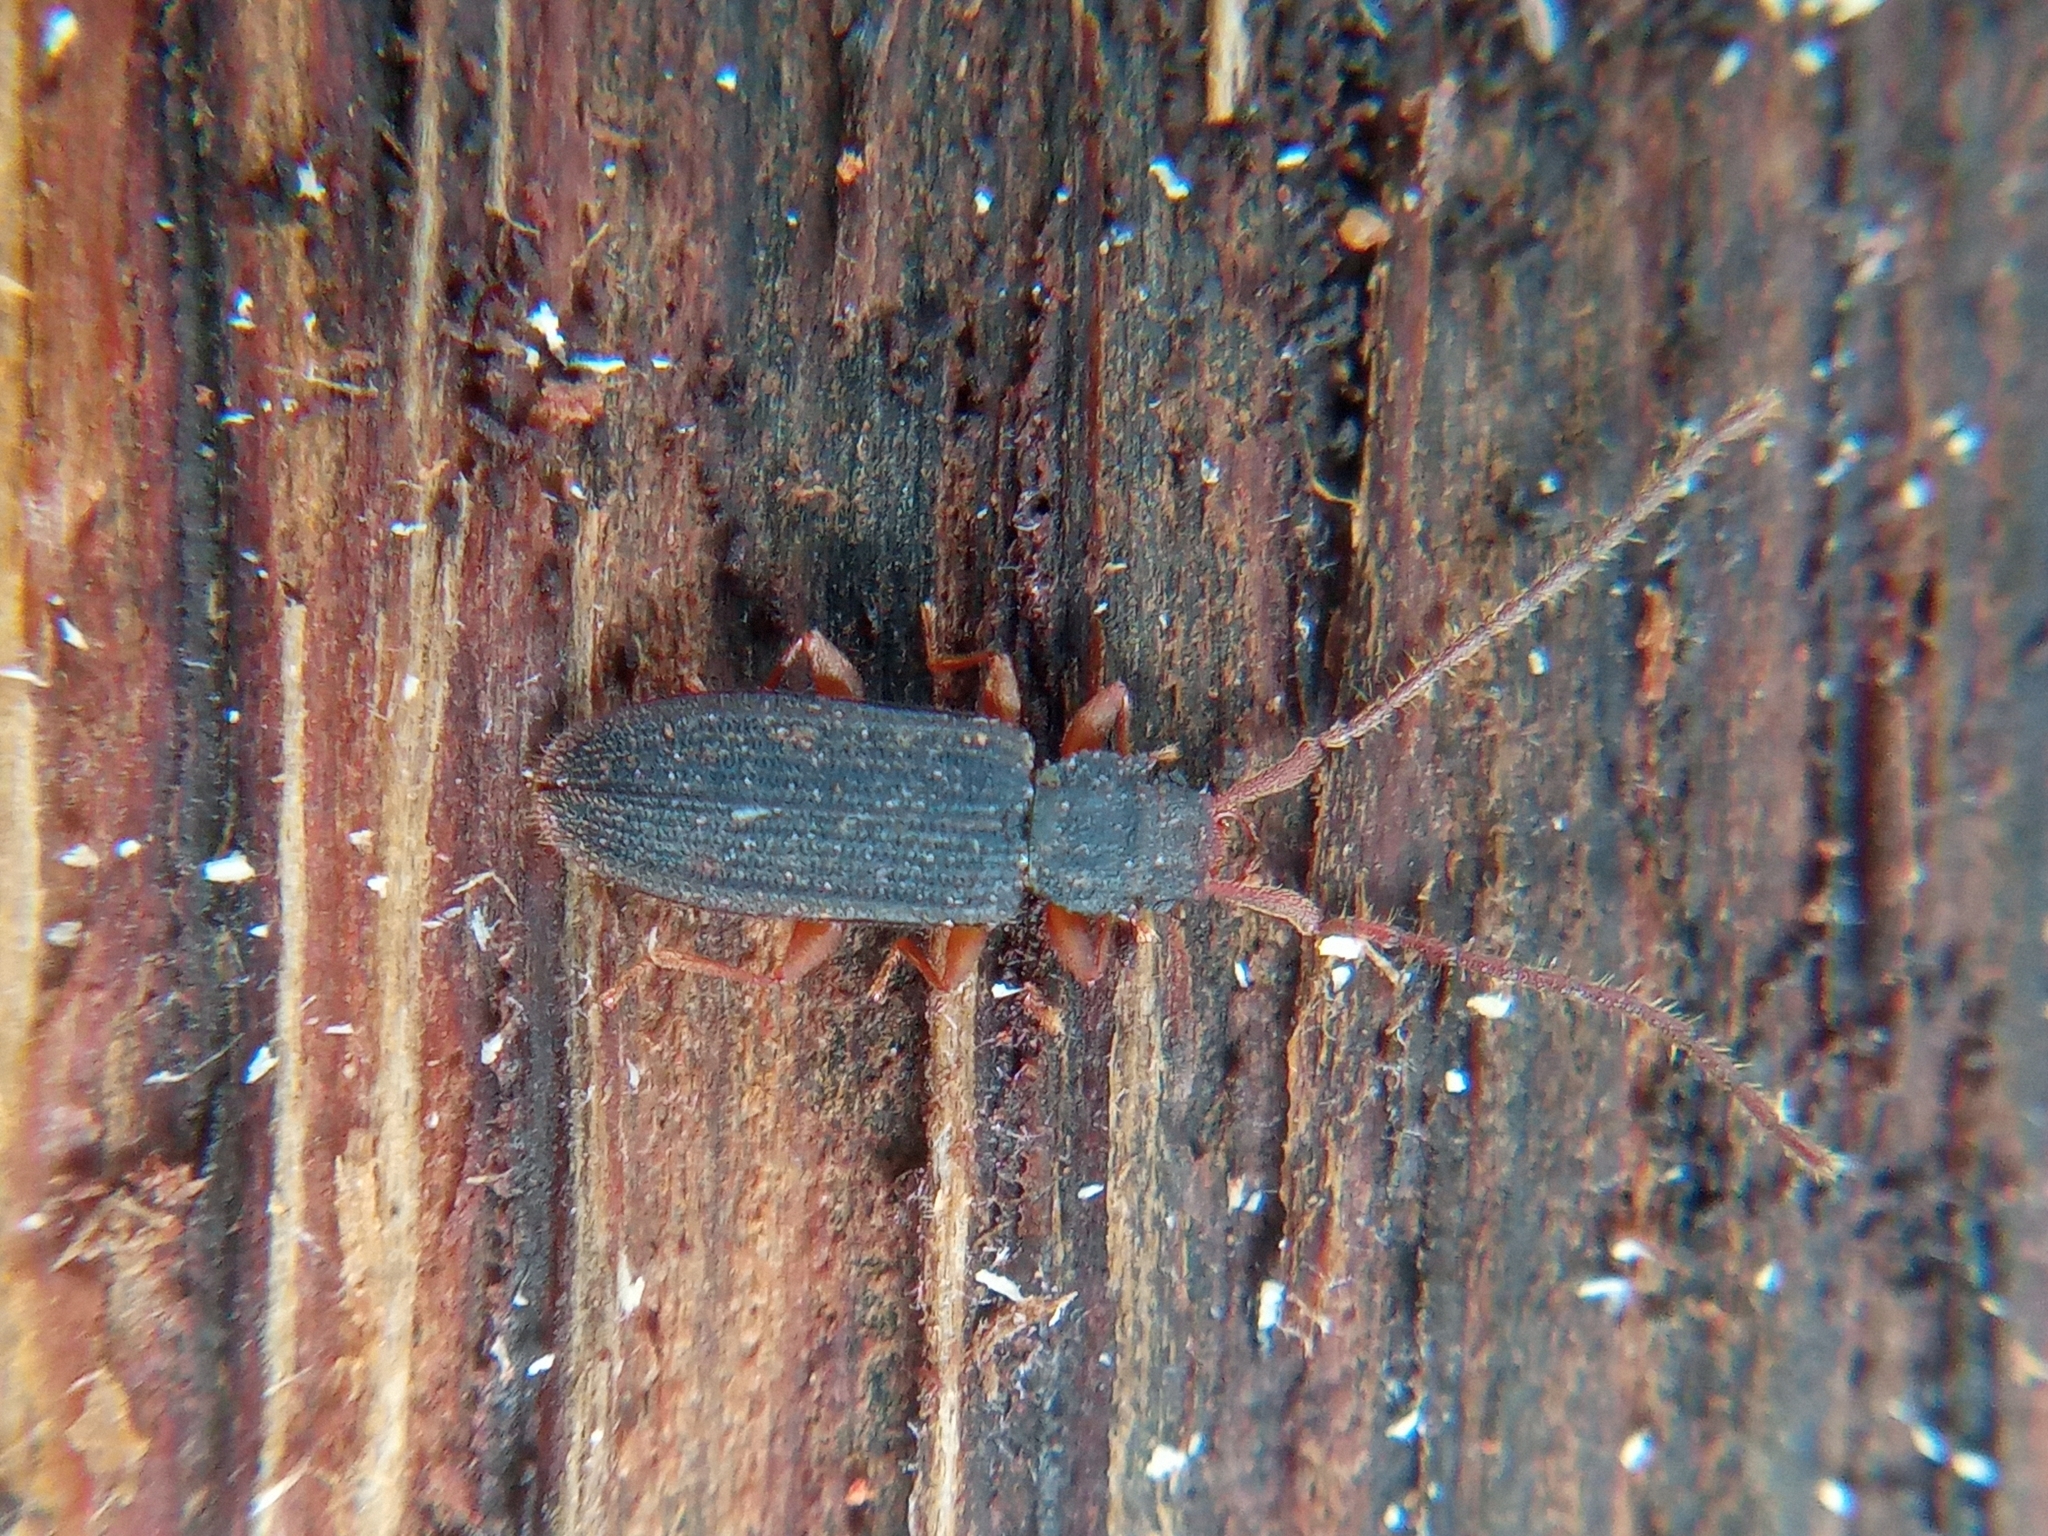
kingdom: Animalia
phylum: Arthropoda
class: Insecta
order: Coleoptera
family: Silvanidae
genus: Uleiota
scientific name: Uleiota planatus
